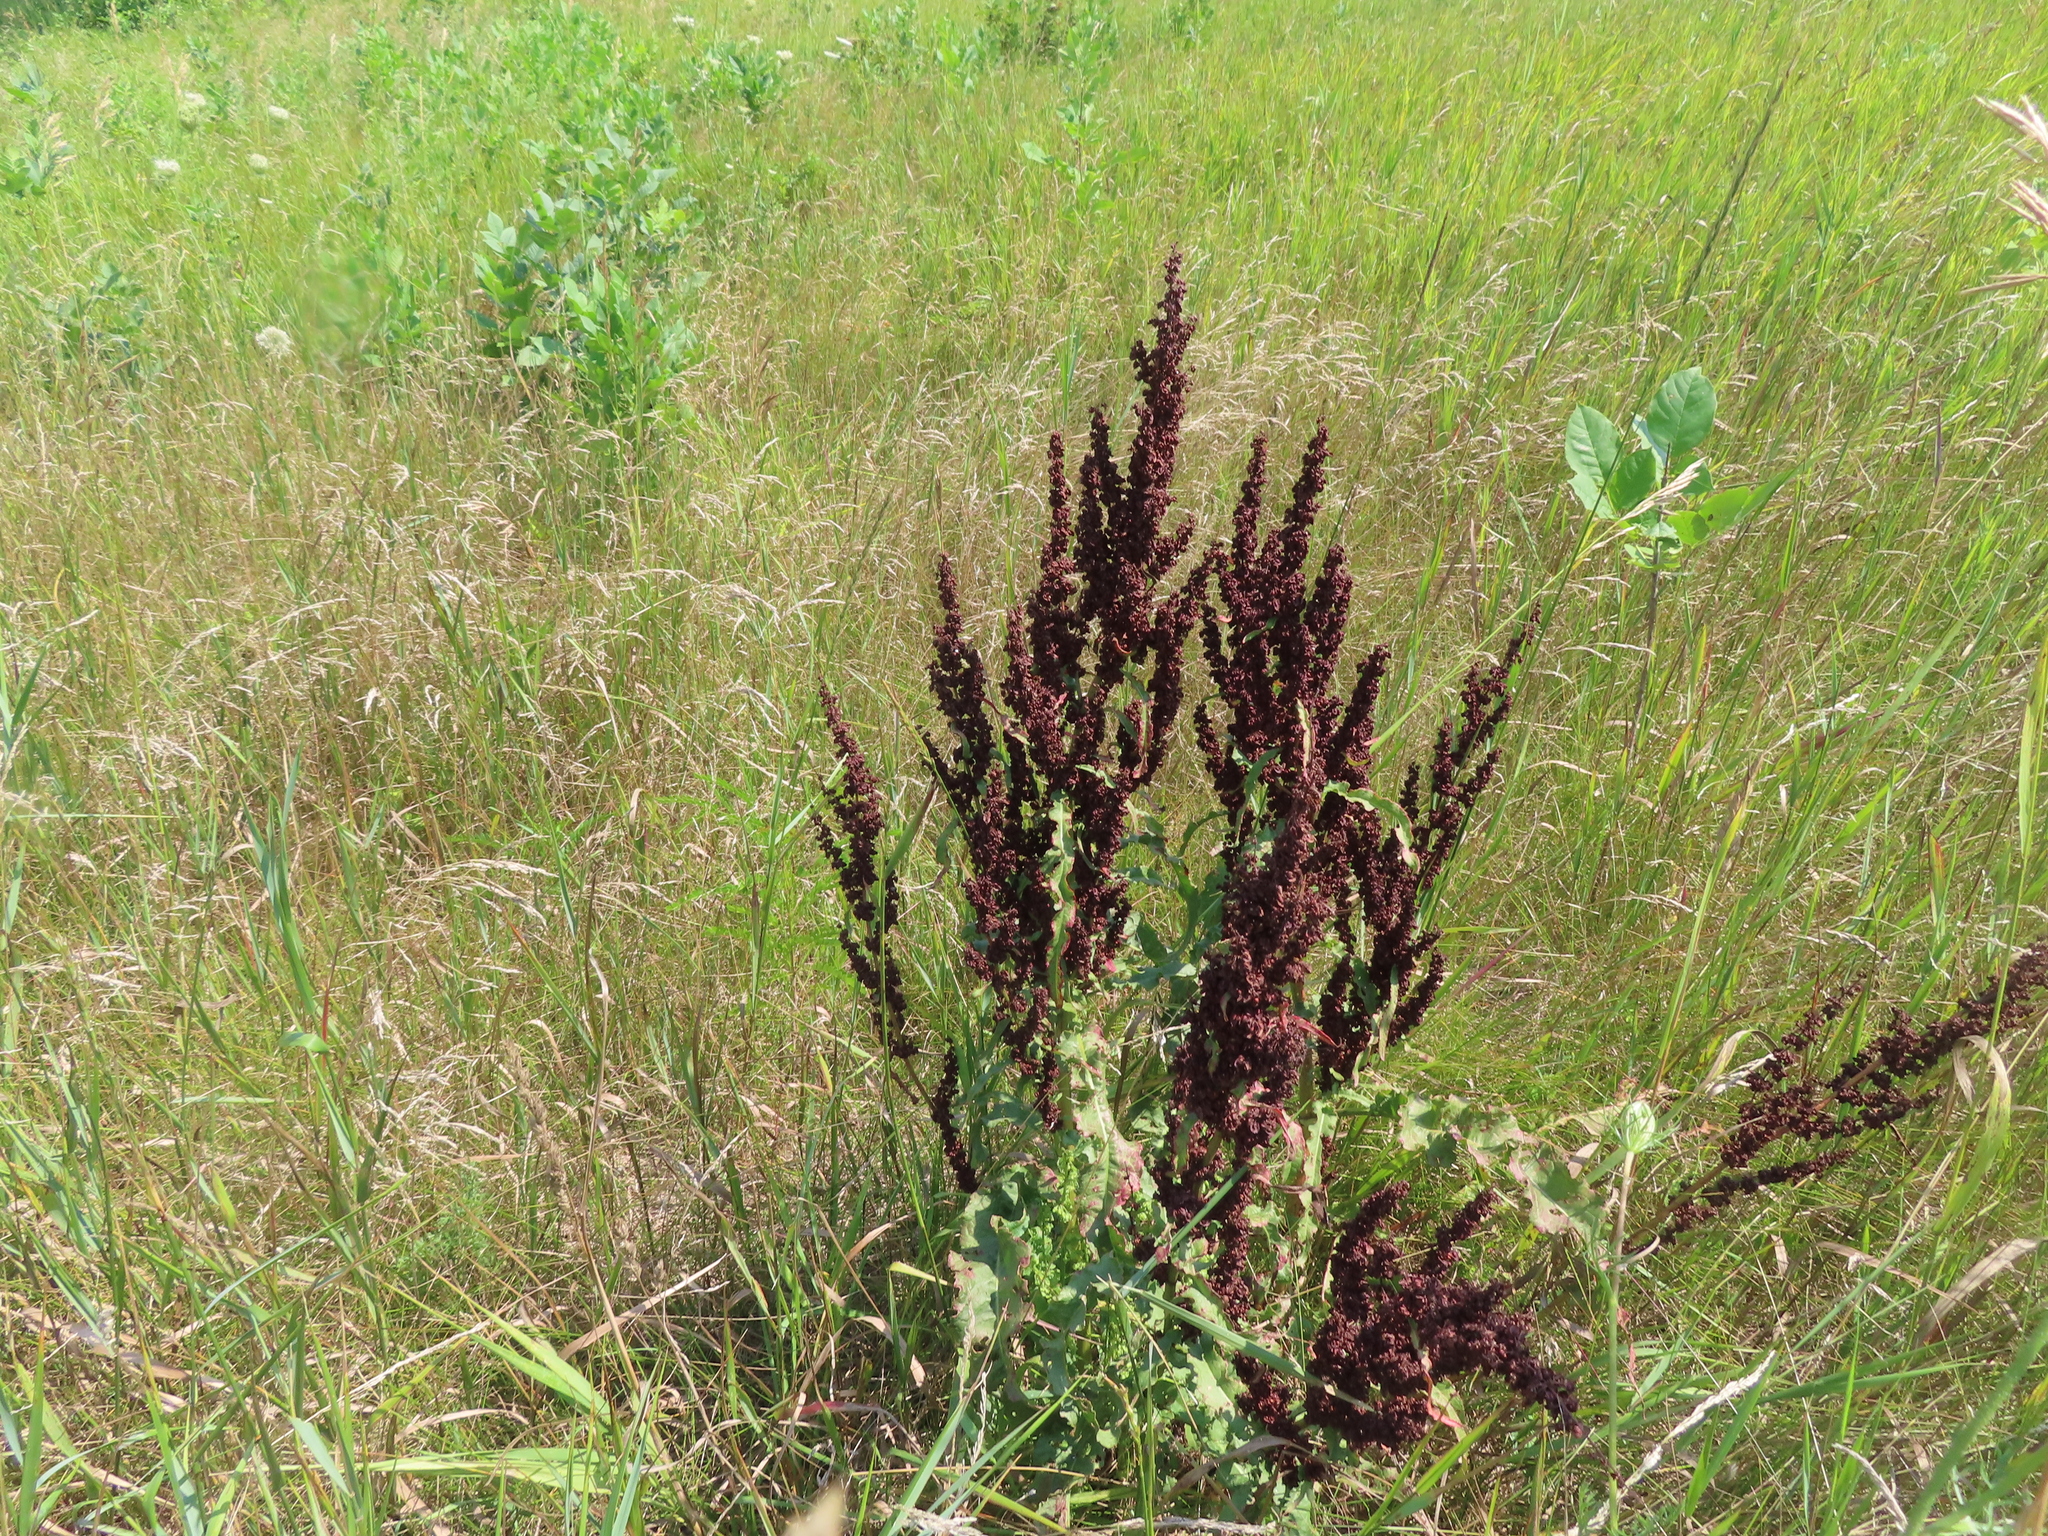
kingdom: Plantae
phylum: Tracheophyta
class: Magnoliopsida
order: Caryophyllales
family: Polygonaceae
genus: Rumex
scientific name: Rumex crispus
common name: Curled dock
